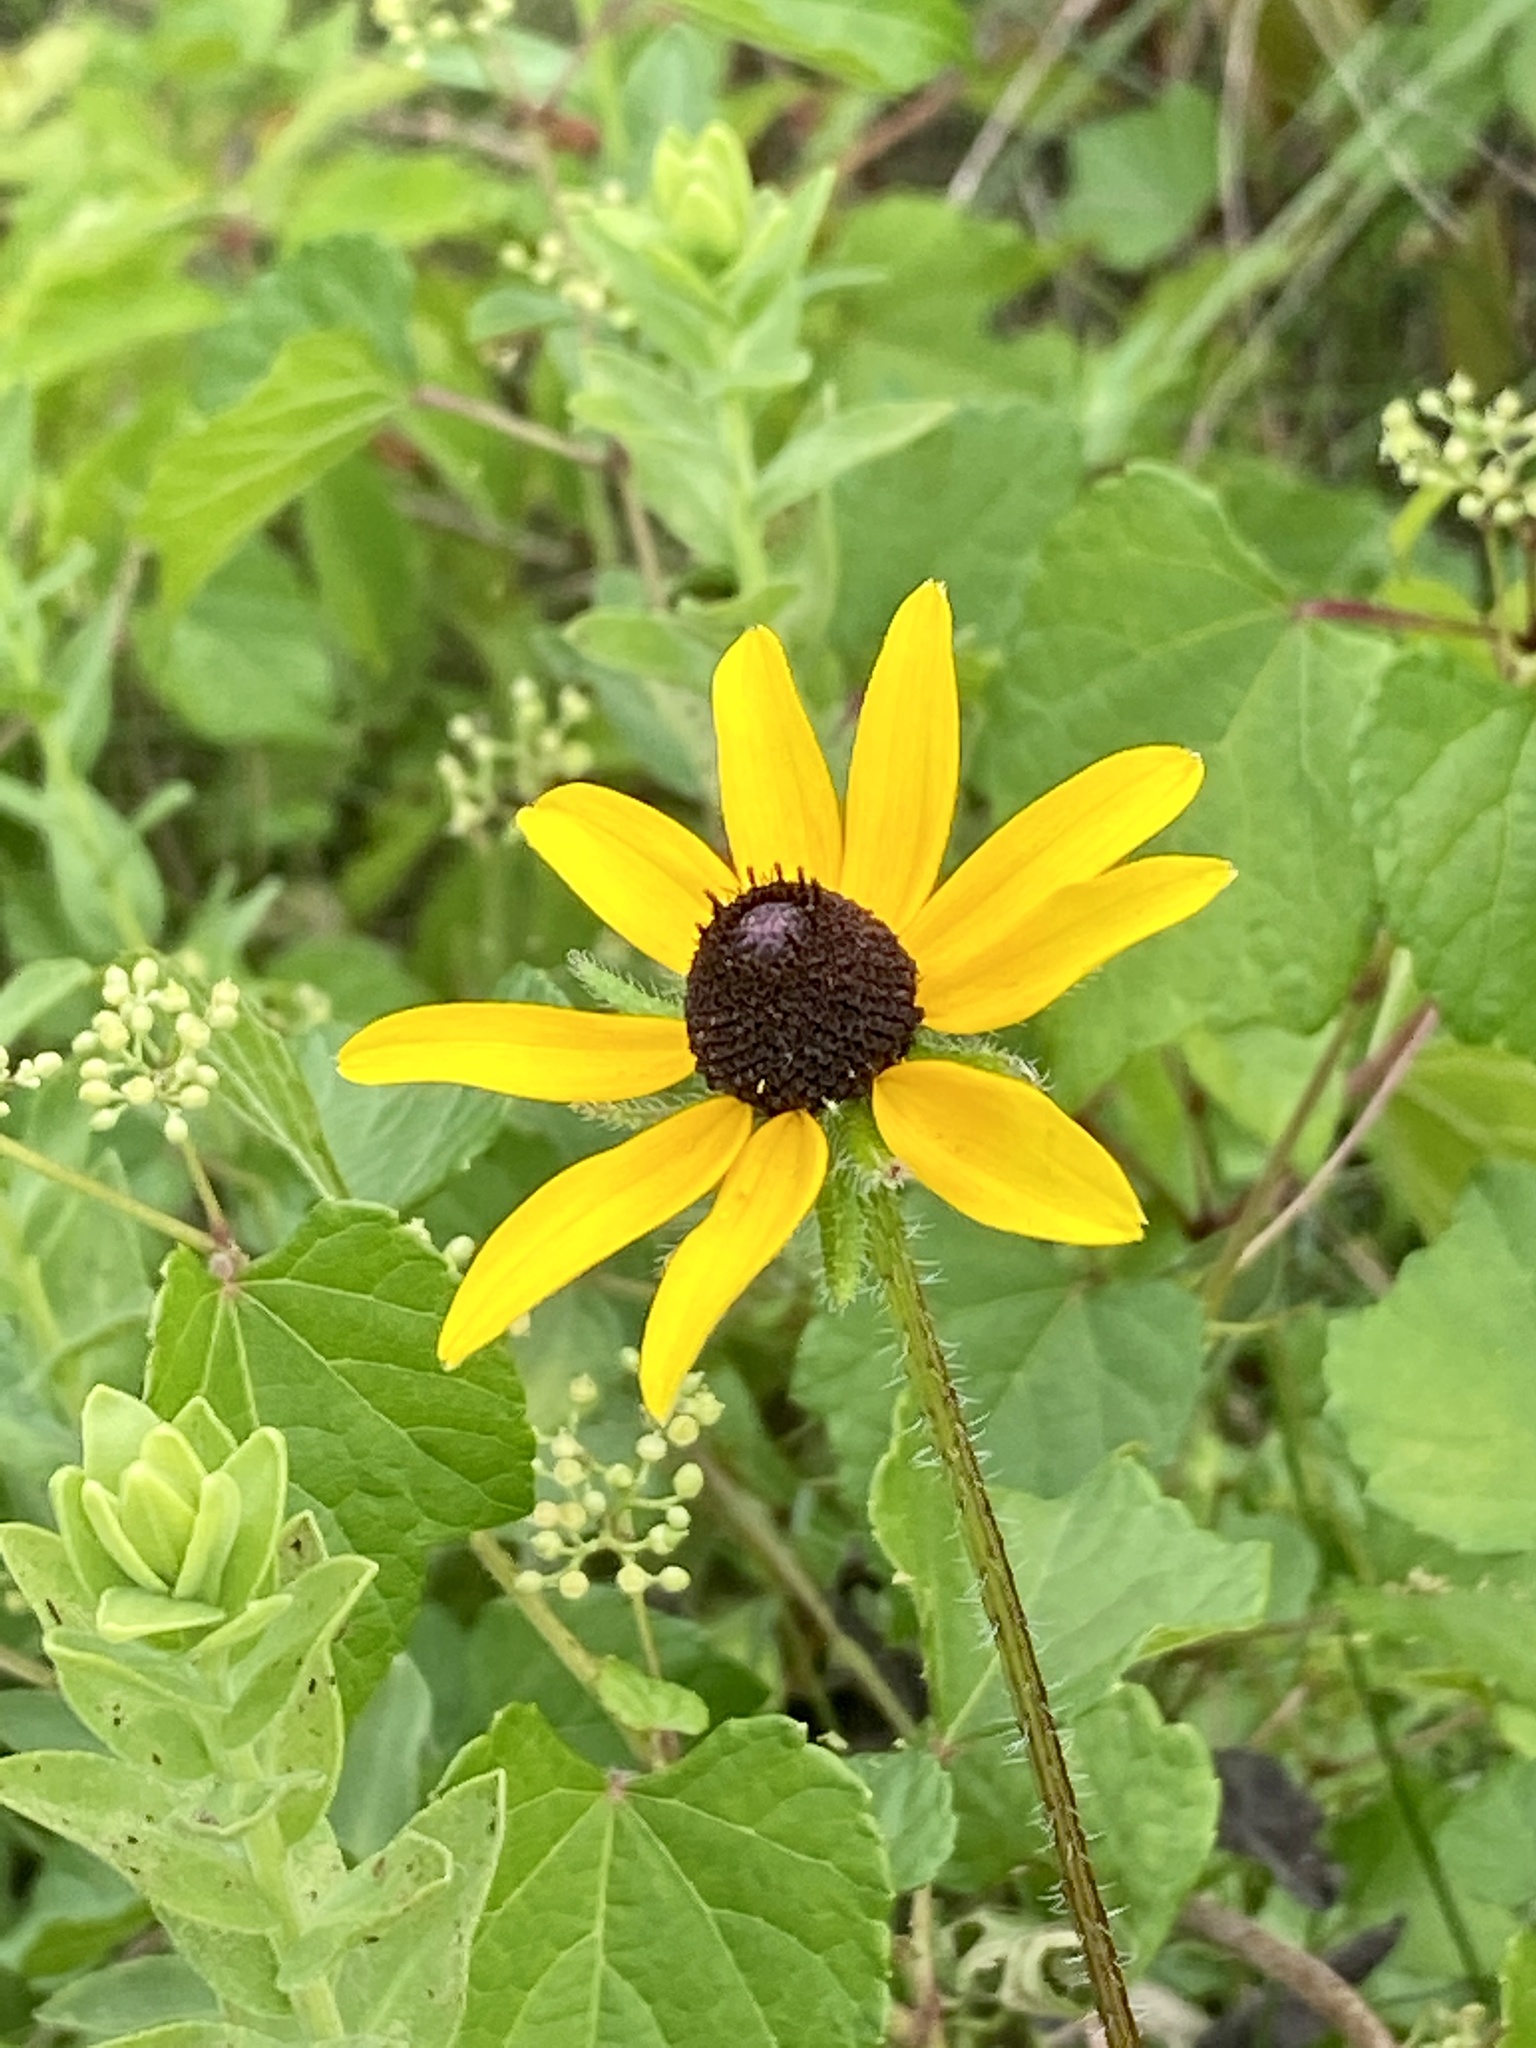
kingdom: Plantae
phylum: Tracheophyta
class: Magnoliopsida
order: Asterales
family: Asteraceae
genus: Rudbeckia
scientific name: Rudbeckia hirta
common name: Black-eyed-susan
